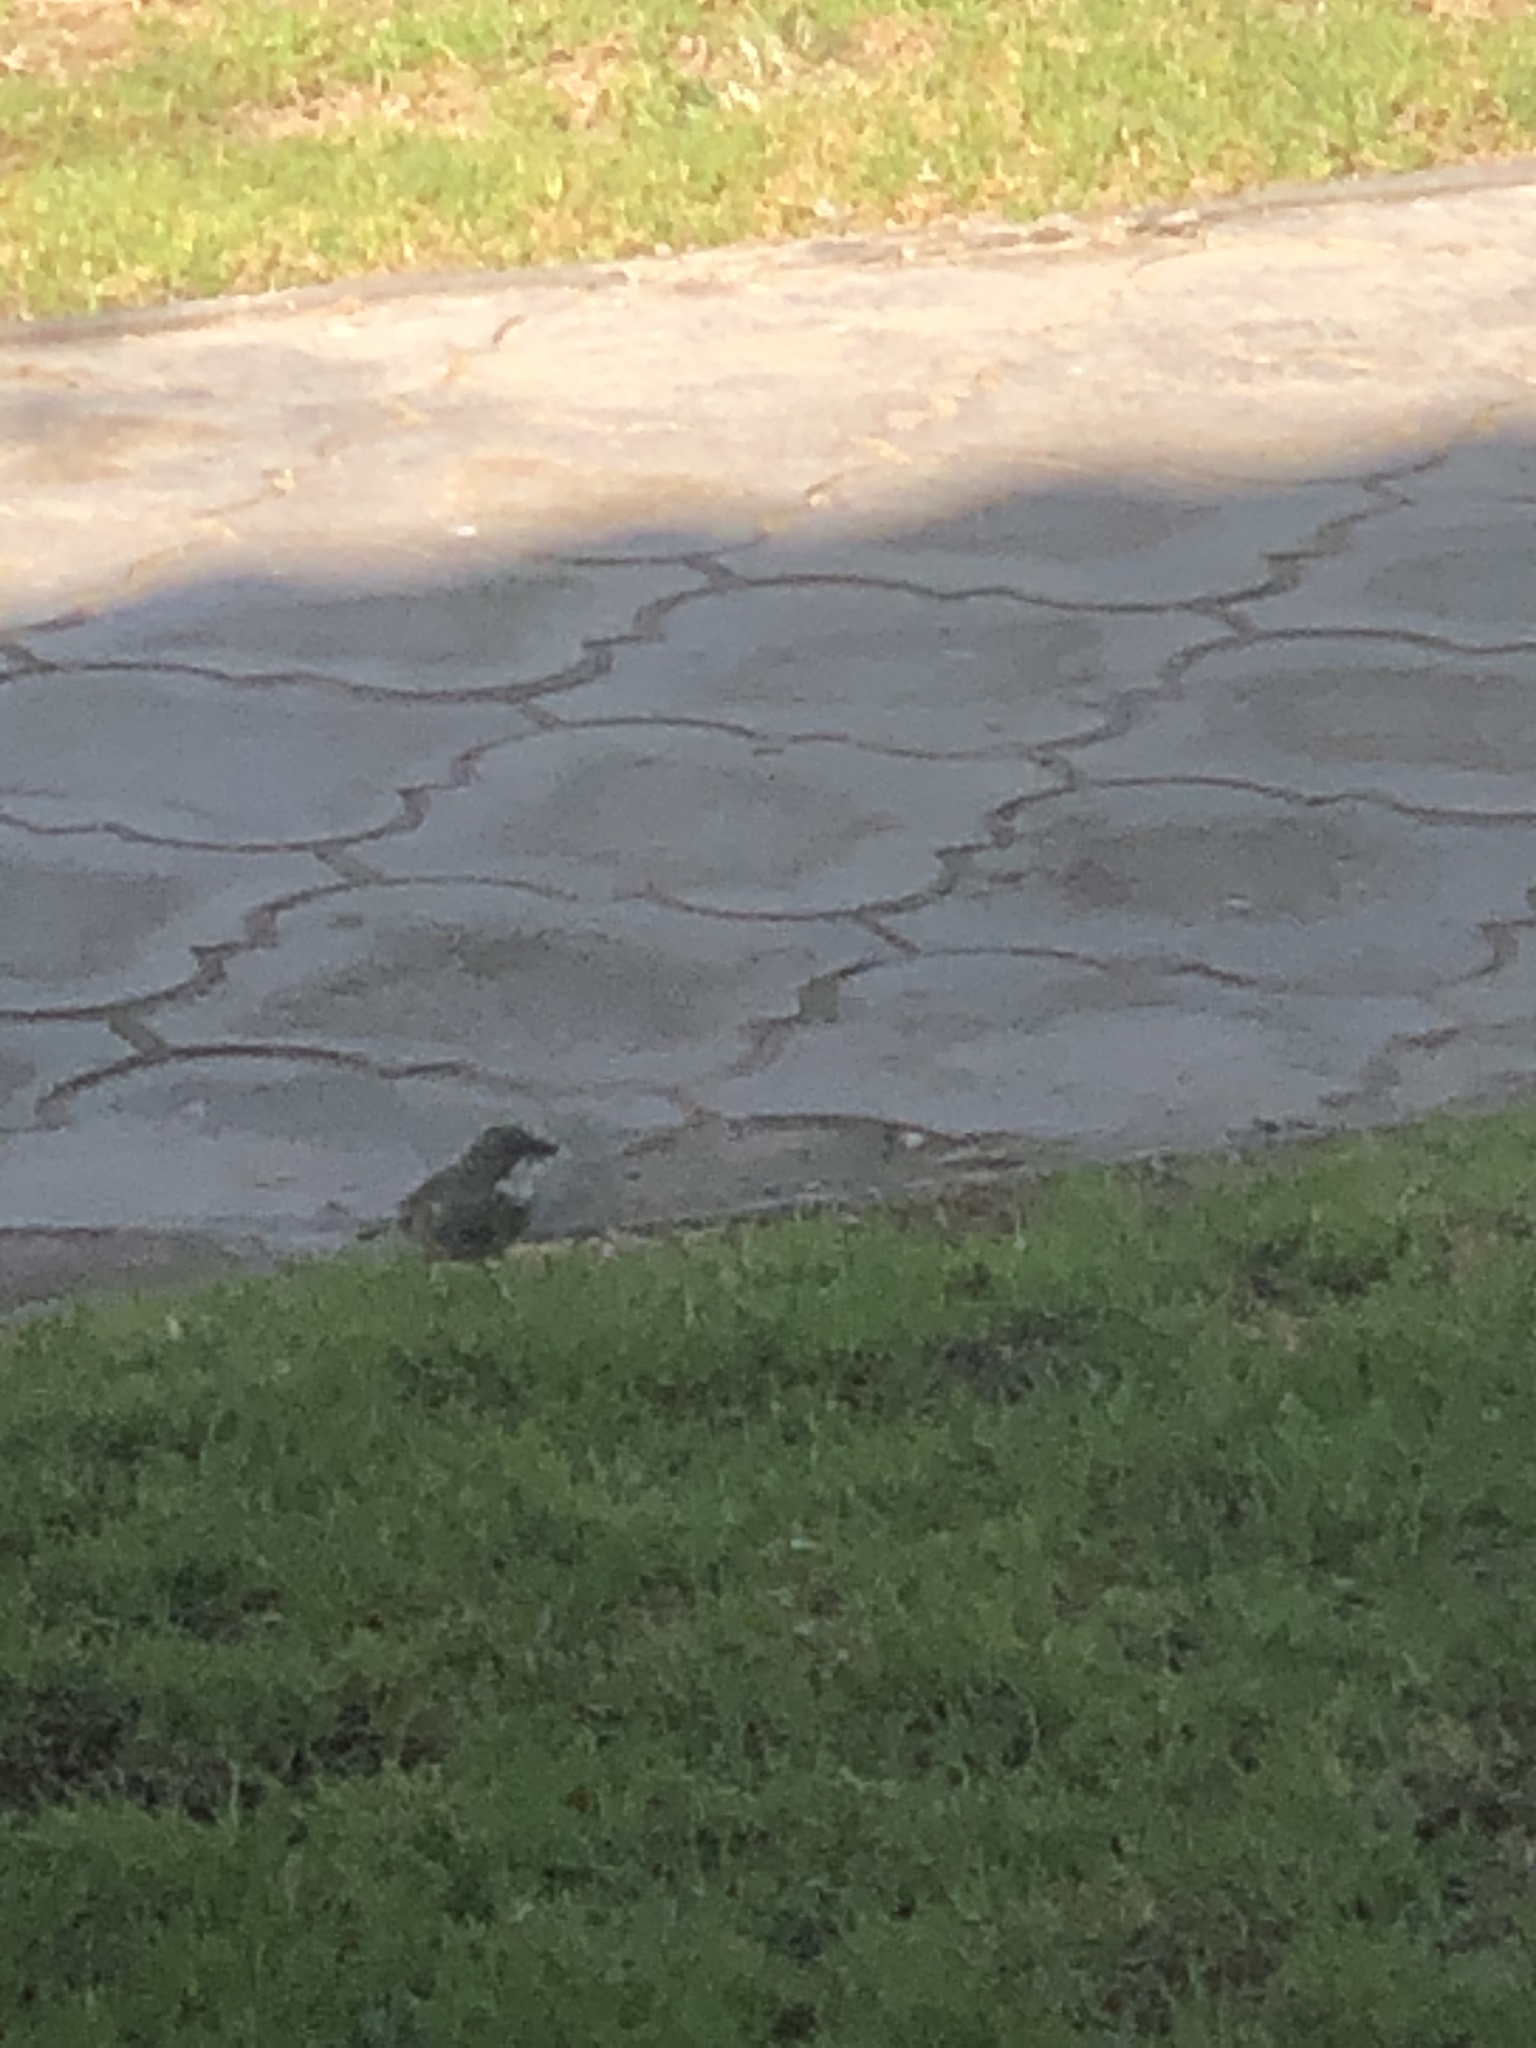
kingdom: Animalia
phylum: Chordata
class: Aves
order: Passeriformes
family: Thraupidae
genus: Diuca
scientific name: Diuca diuca
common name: Common diuca finch
